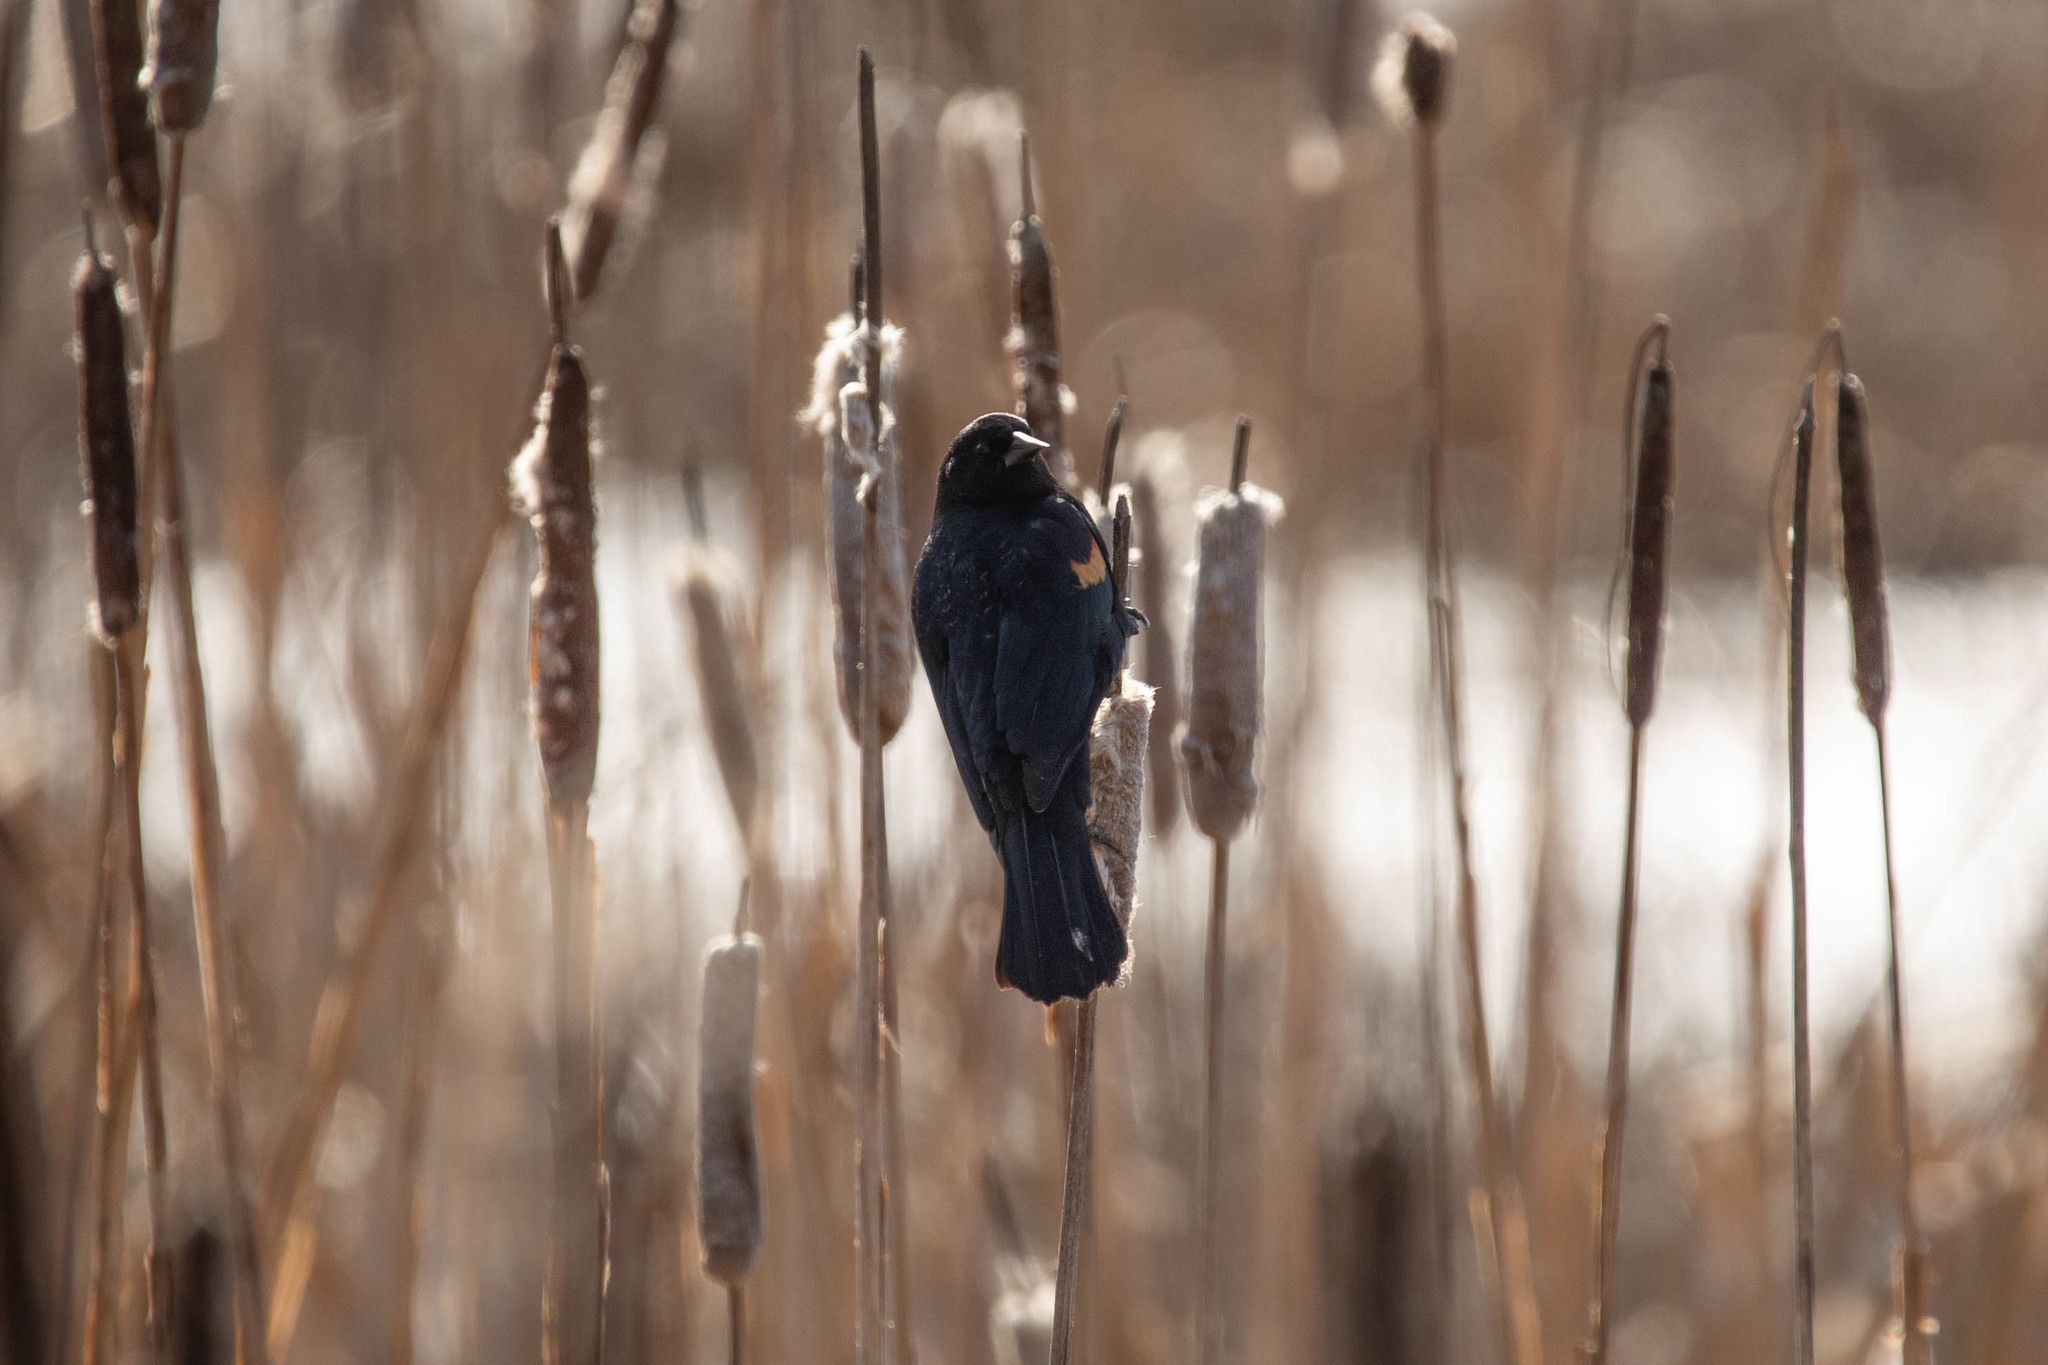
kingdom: Animalia
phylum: Chordata
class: Aves
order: Passeriformes
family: Icteridae
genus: Agelaius
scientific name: Agelaius phoeniceus
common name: Red-winged blackbird
